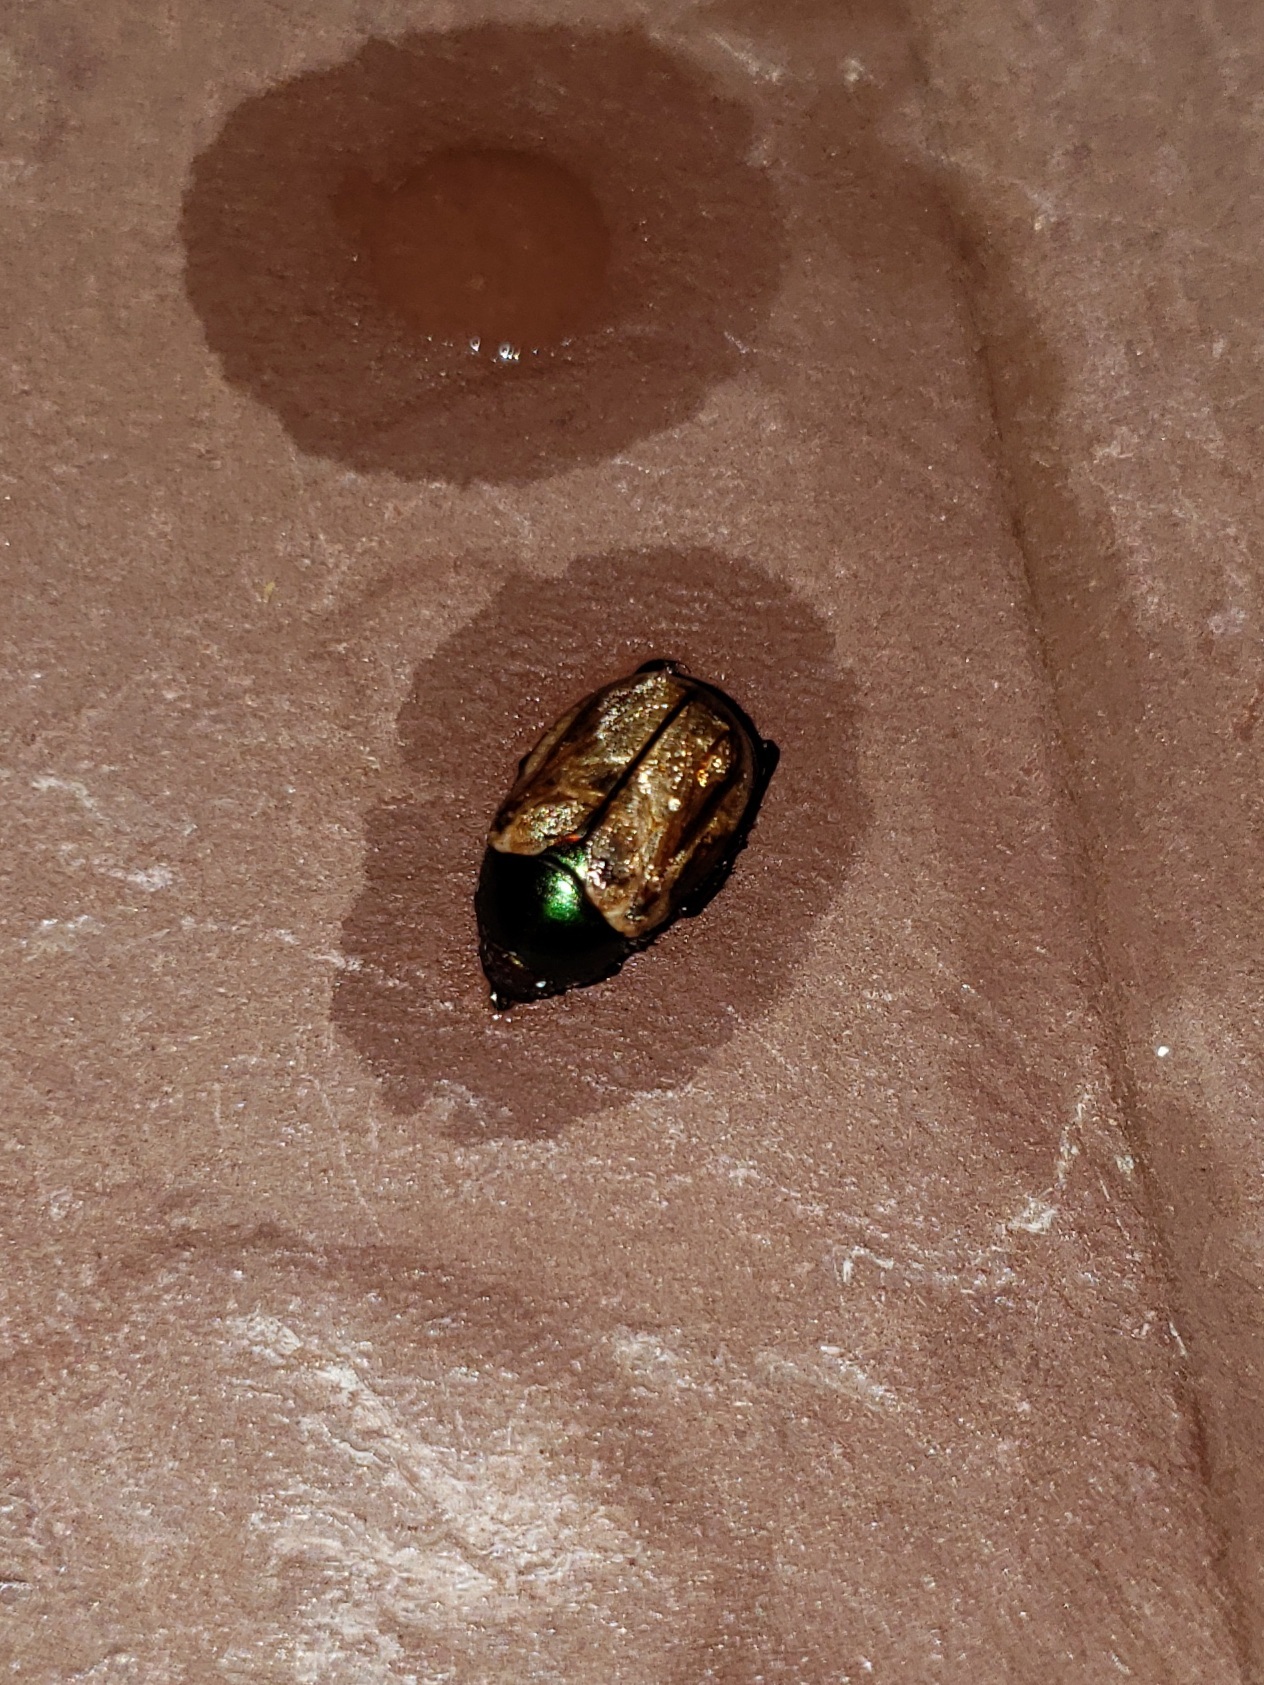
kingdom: Animalia
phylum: Arthropoda
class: Insecta
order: Coleoptera
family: Scarabaeidae
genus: Paranomala
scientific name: Paranomala testaceipennis
